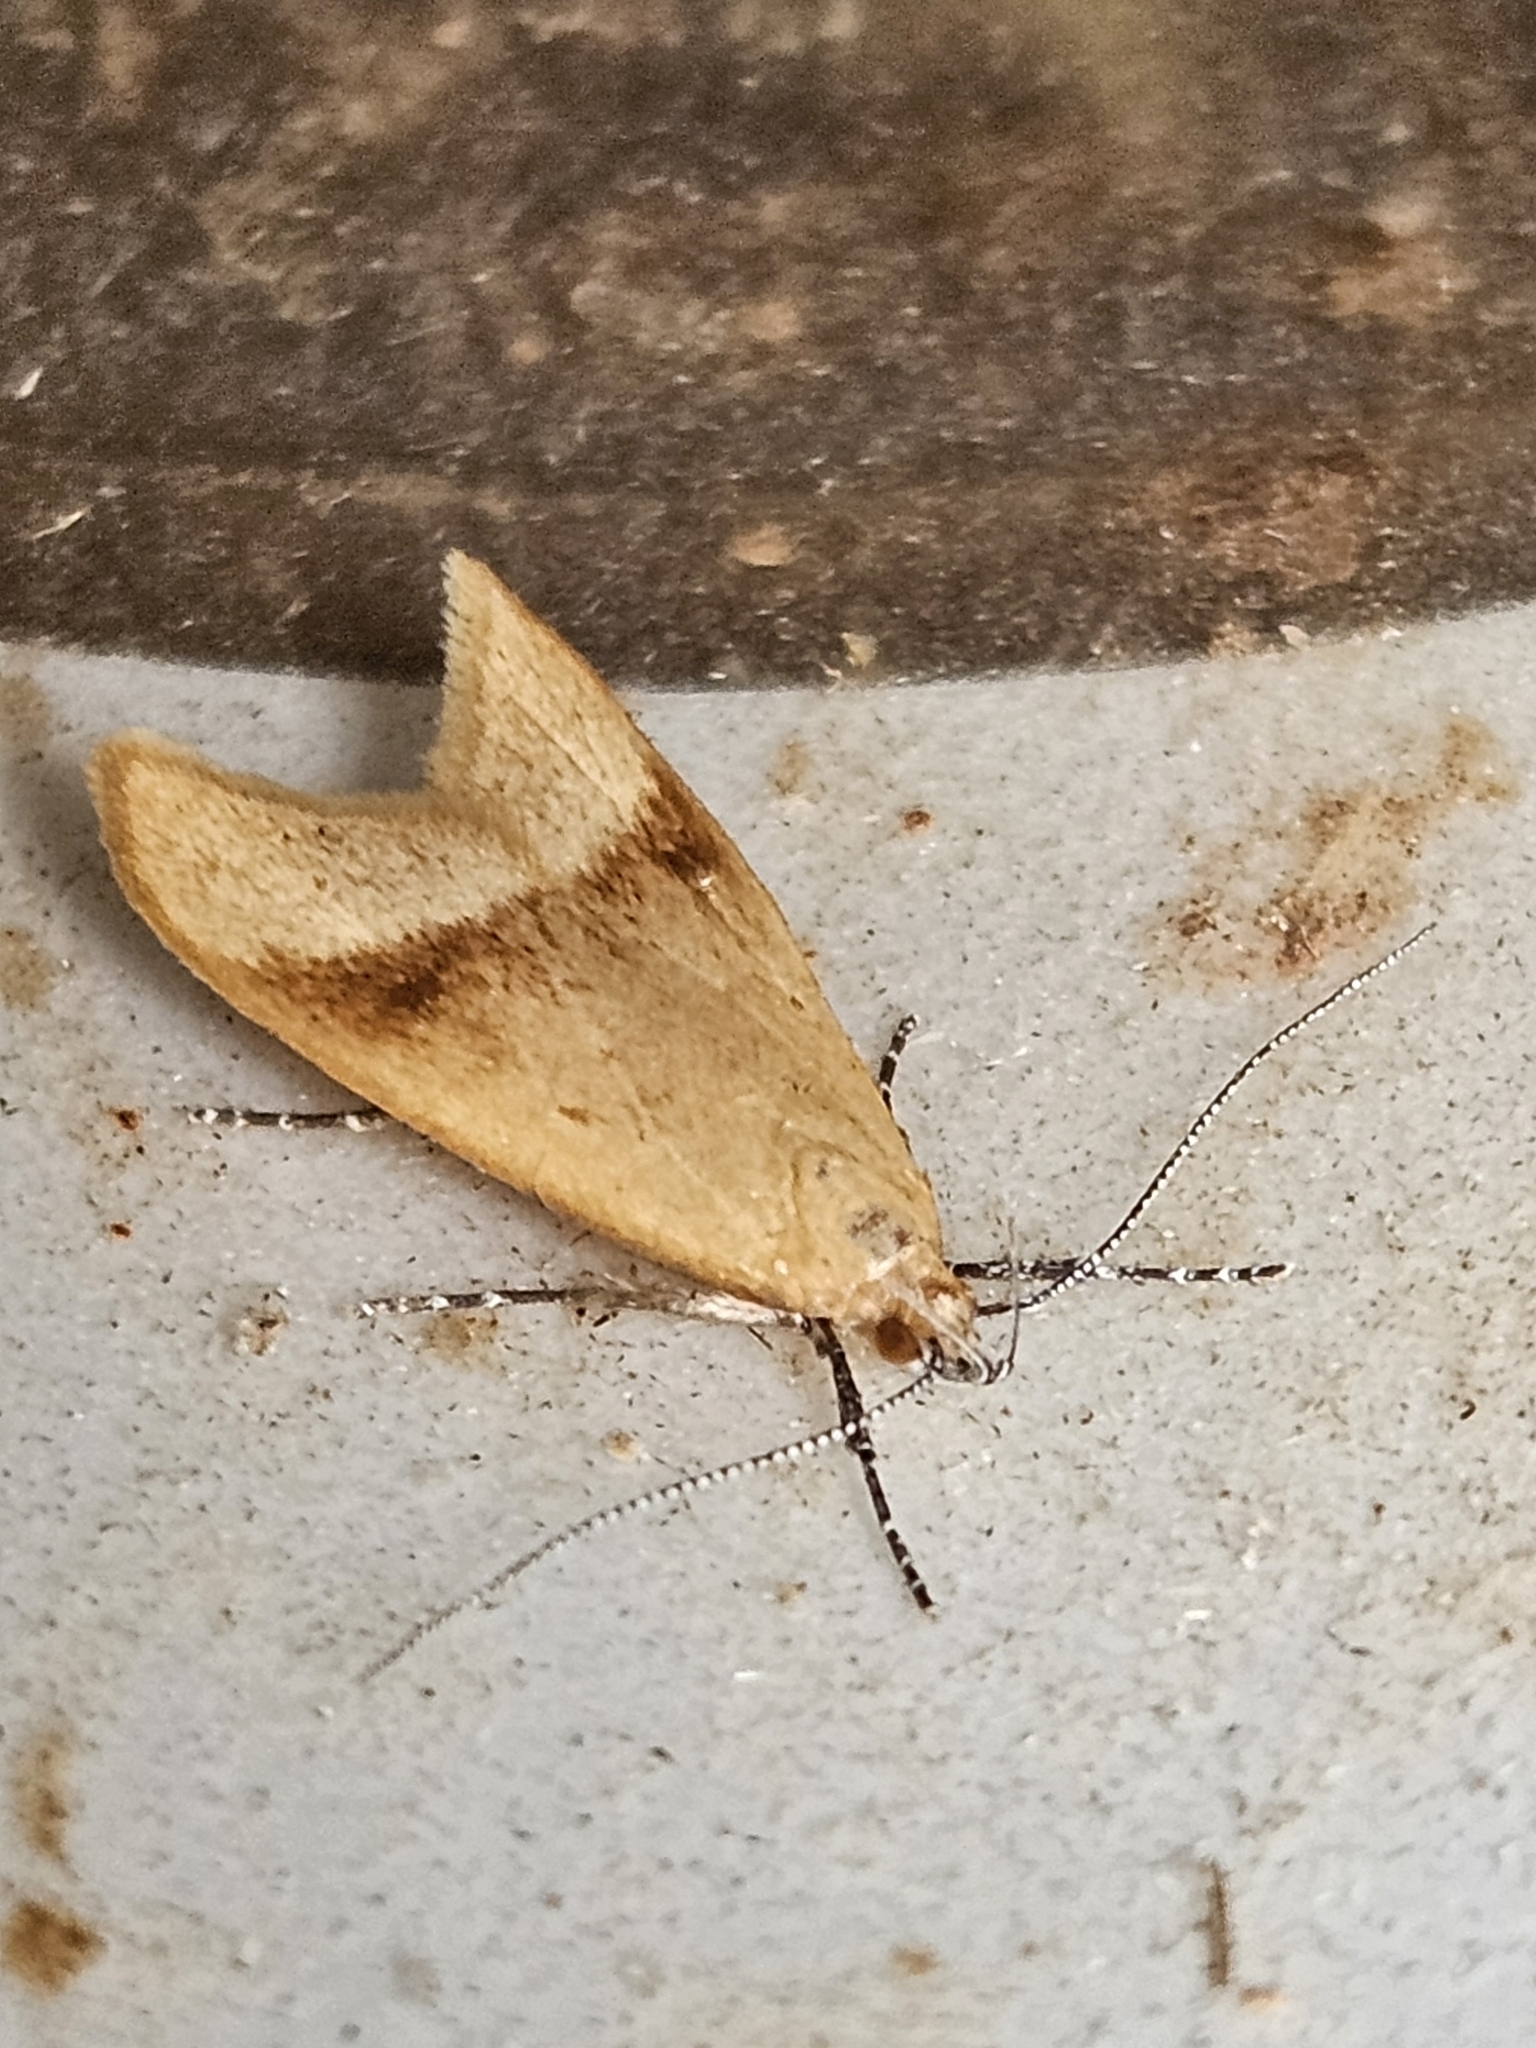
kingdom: Animalia
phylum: Arthropoda
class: Insecta
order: Lepidoptera
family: Oecophoridae
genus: Gymnobathra
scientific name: Gymnobathra hyetodes
